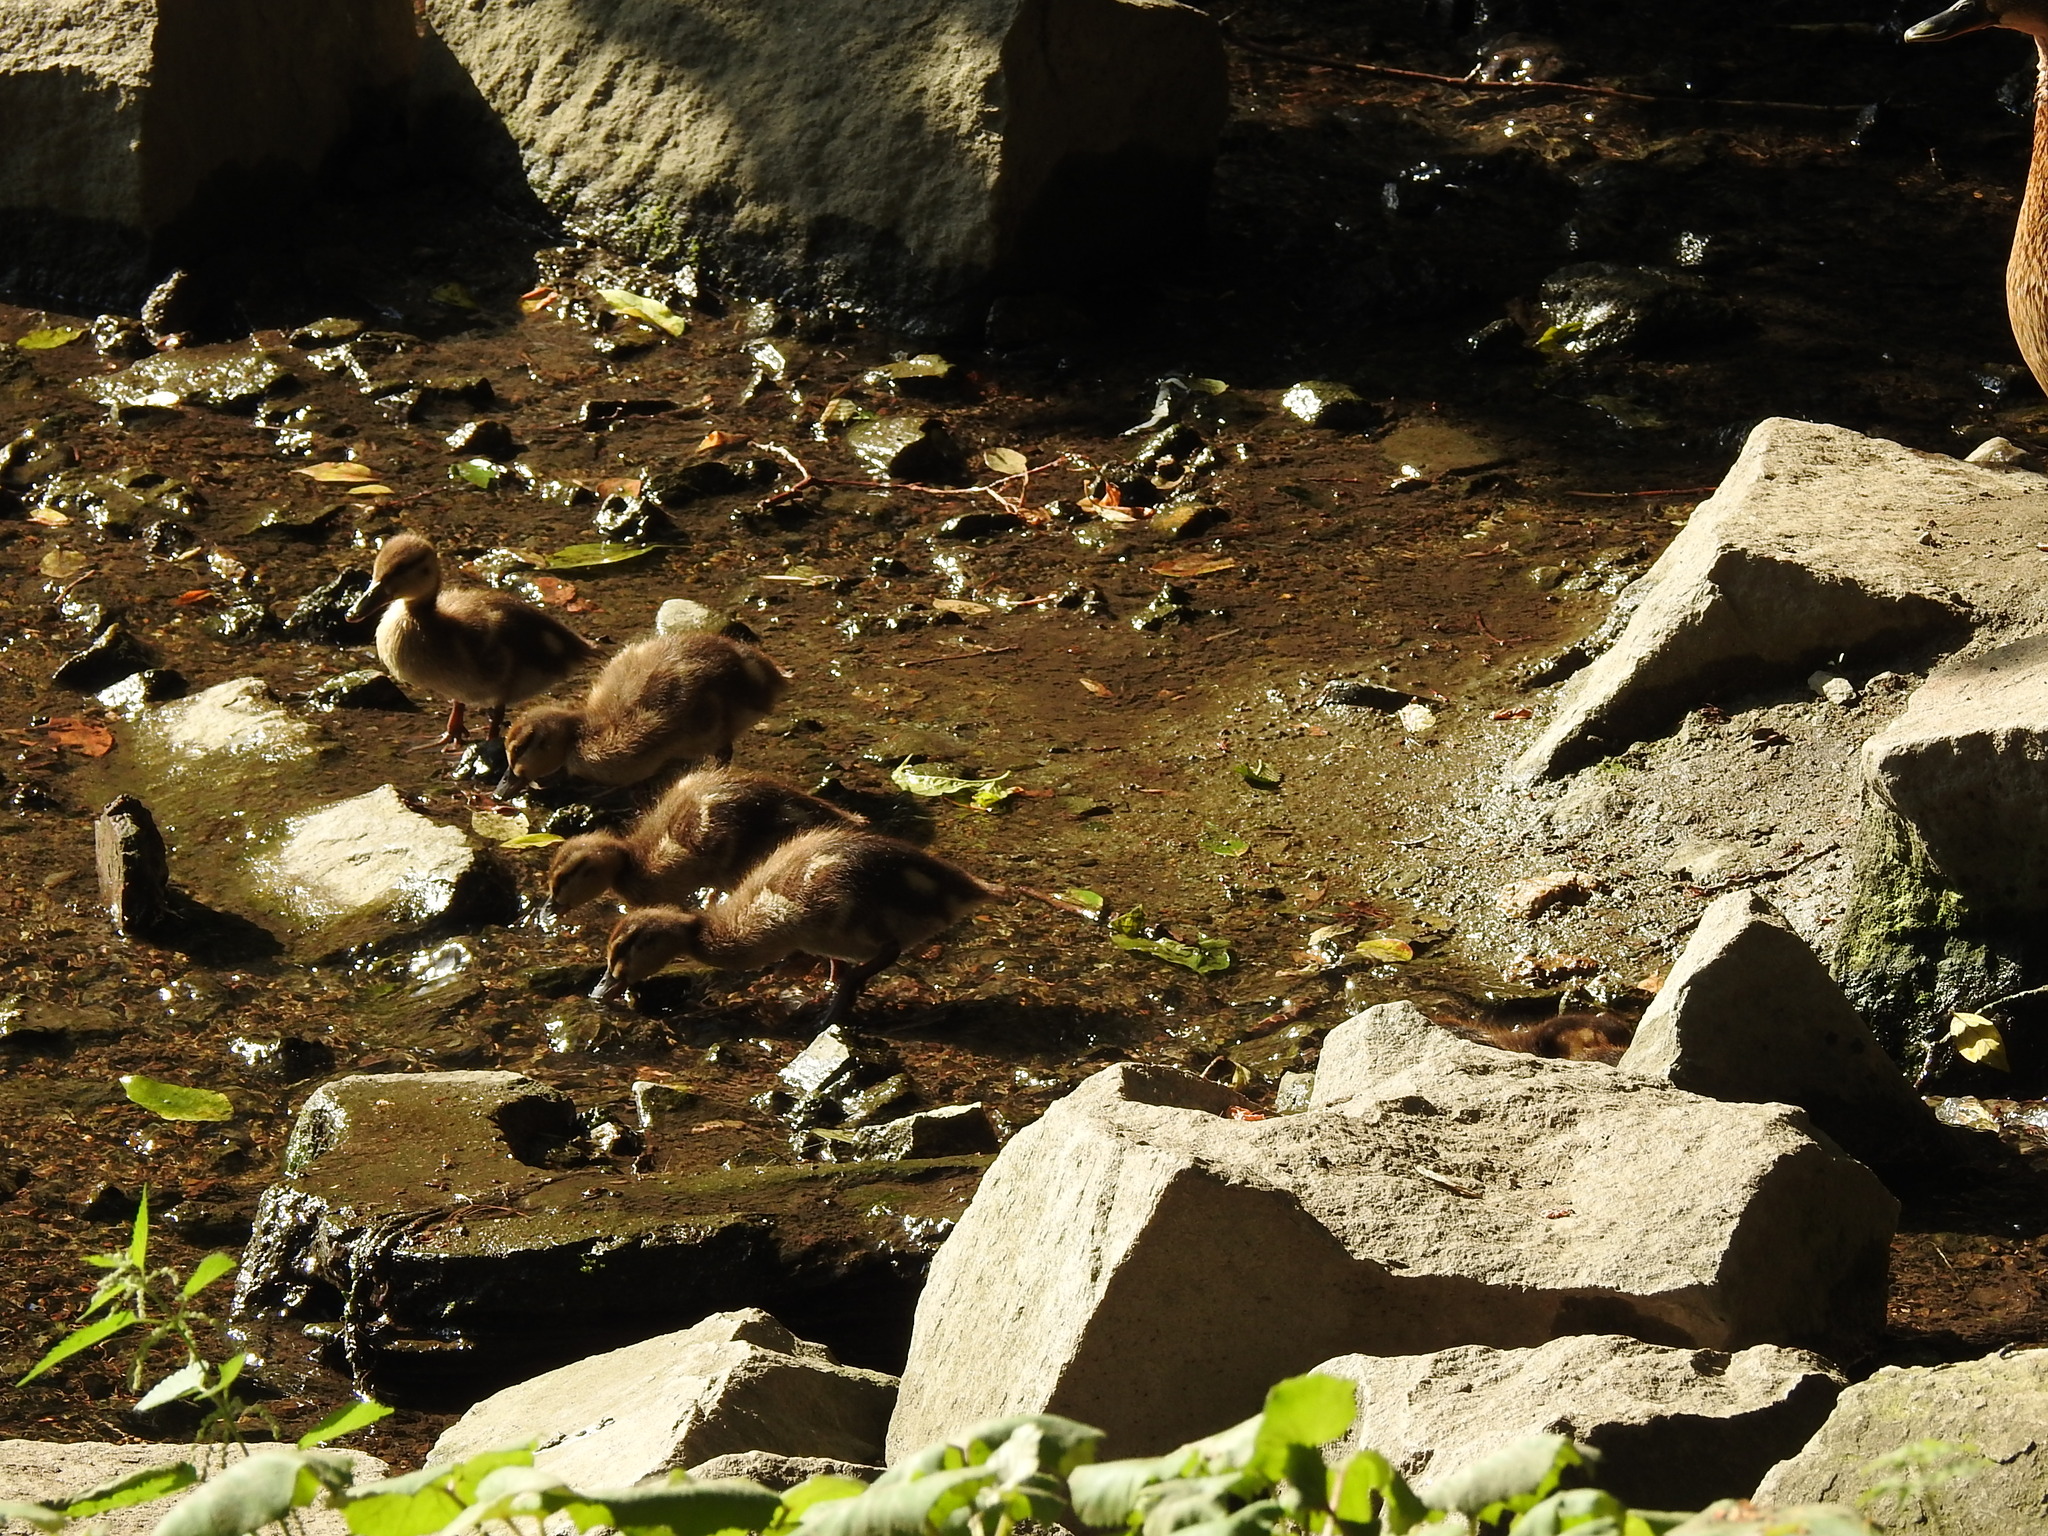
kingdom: Animalia
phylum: Chordata
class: Aves
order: Anseriformes
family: Anatidae
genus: Anas
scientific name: Anas platyrhynchos
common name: Mallard
